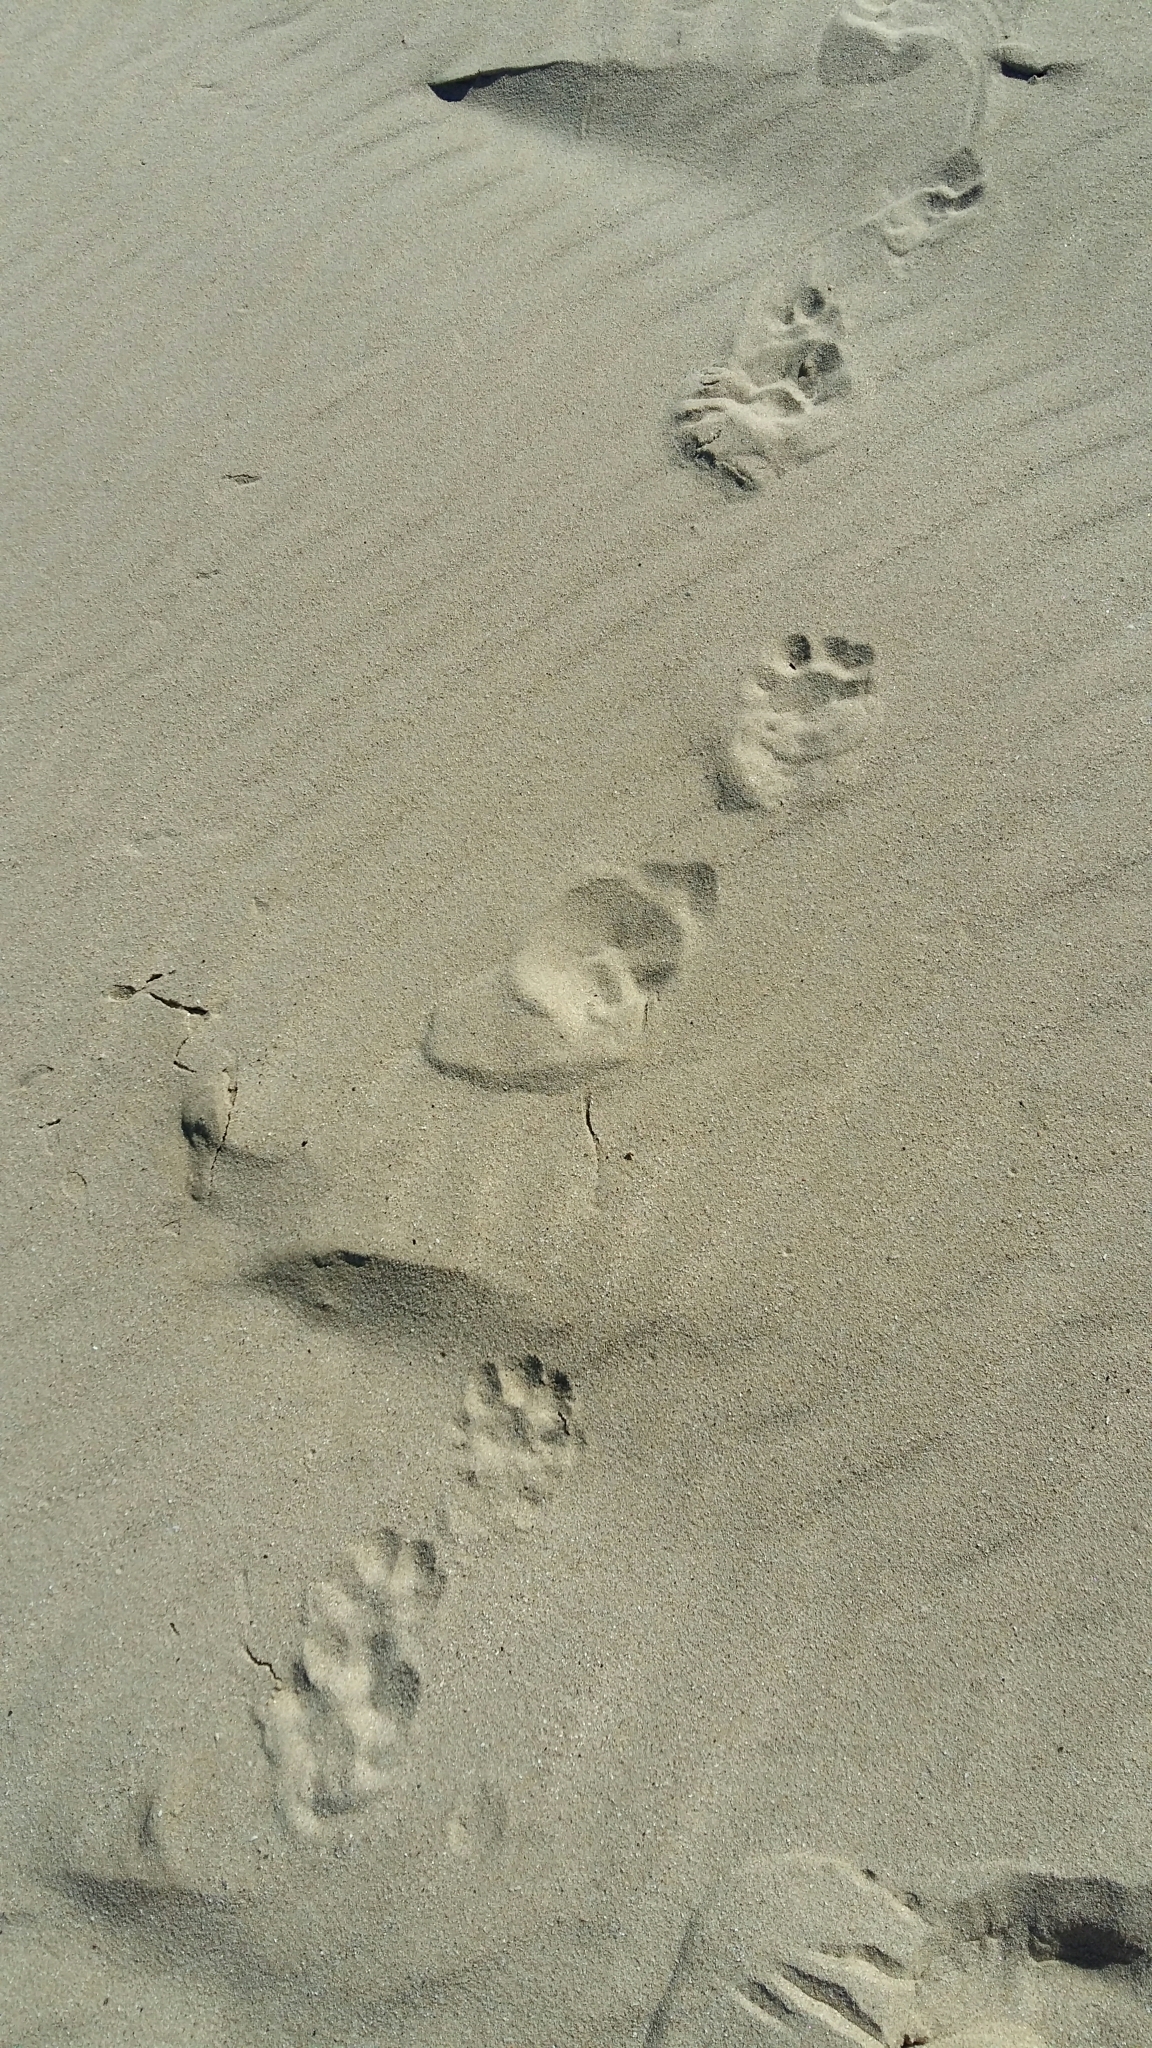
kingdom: Animalia
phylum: Chordata
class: Mammalia
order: Carnivora
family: Mustelidae
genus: Aonyx
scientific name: Aonyx capensis
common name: African clawless otter
